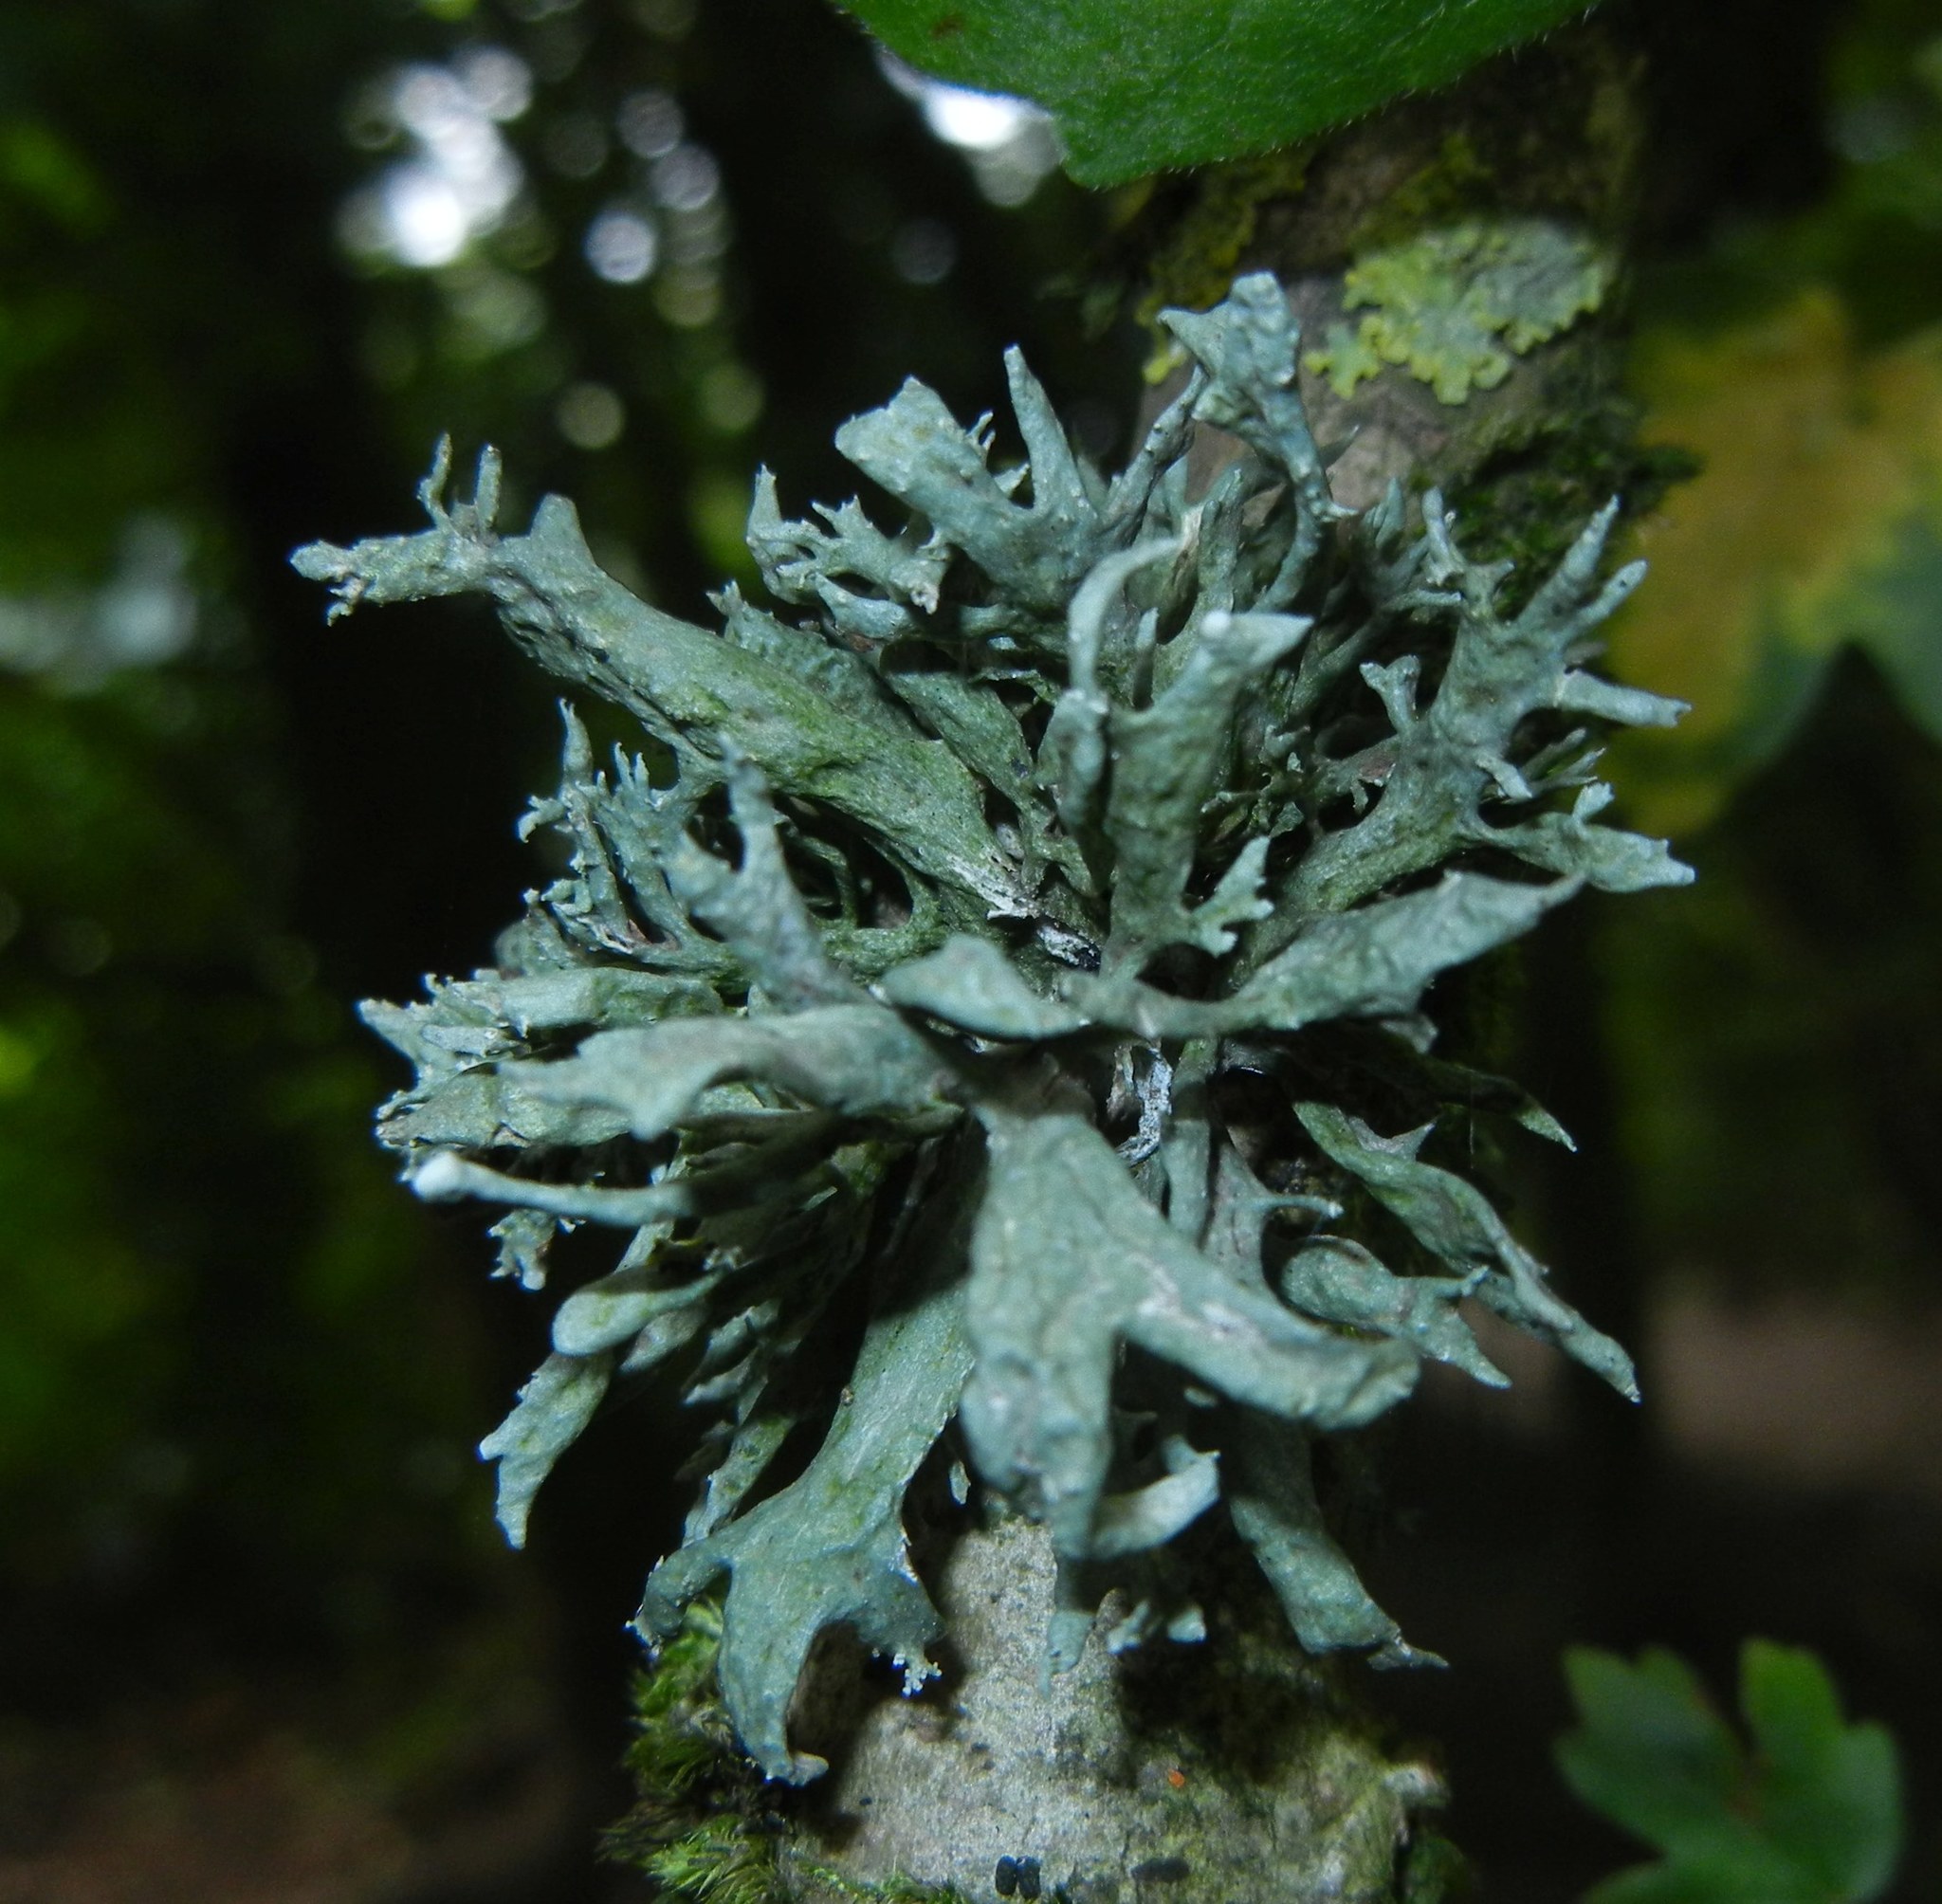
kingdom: Fungi
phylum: Ascomycota
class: Lecanoromycetes
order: Lecanorales
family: Ramalinaceae
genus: Ramalina
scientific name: Ramalina fastigiata
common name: Dotted ribbon lichen
